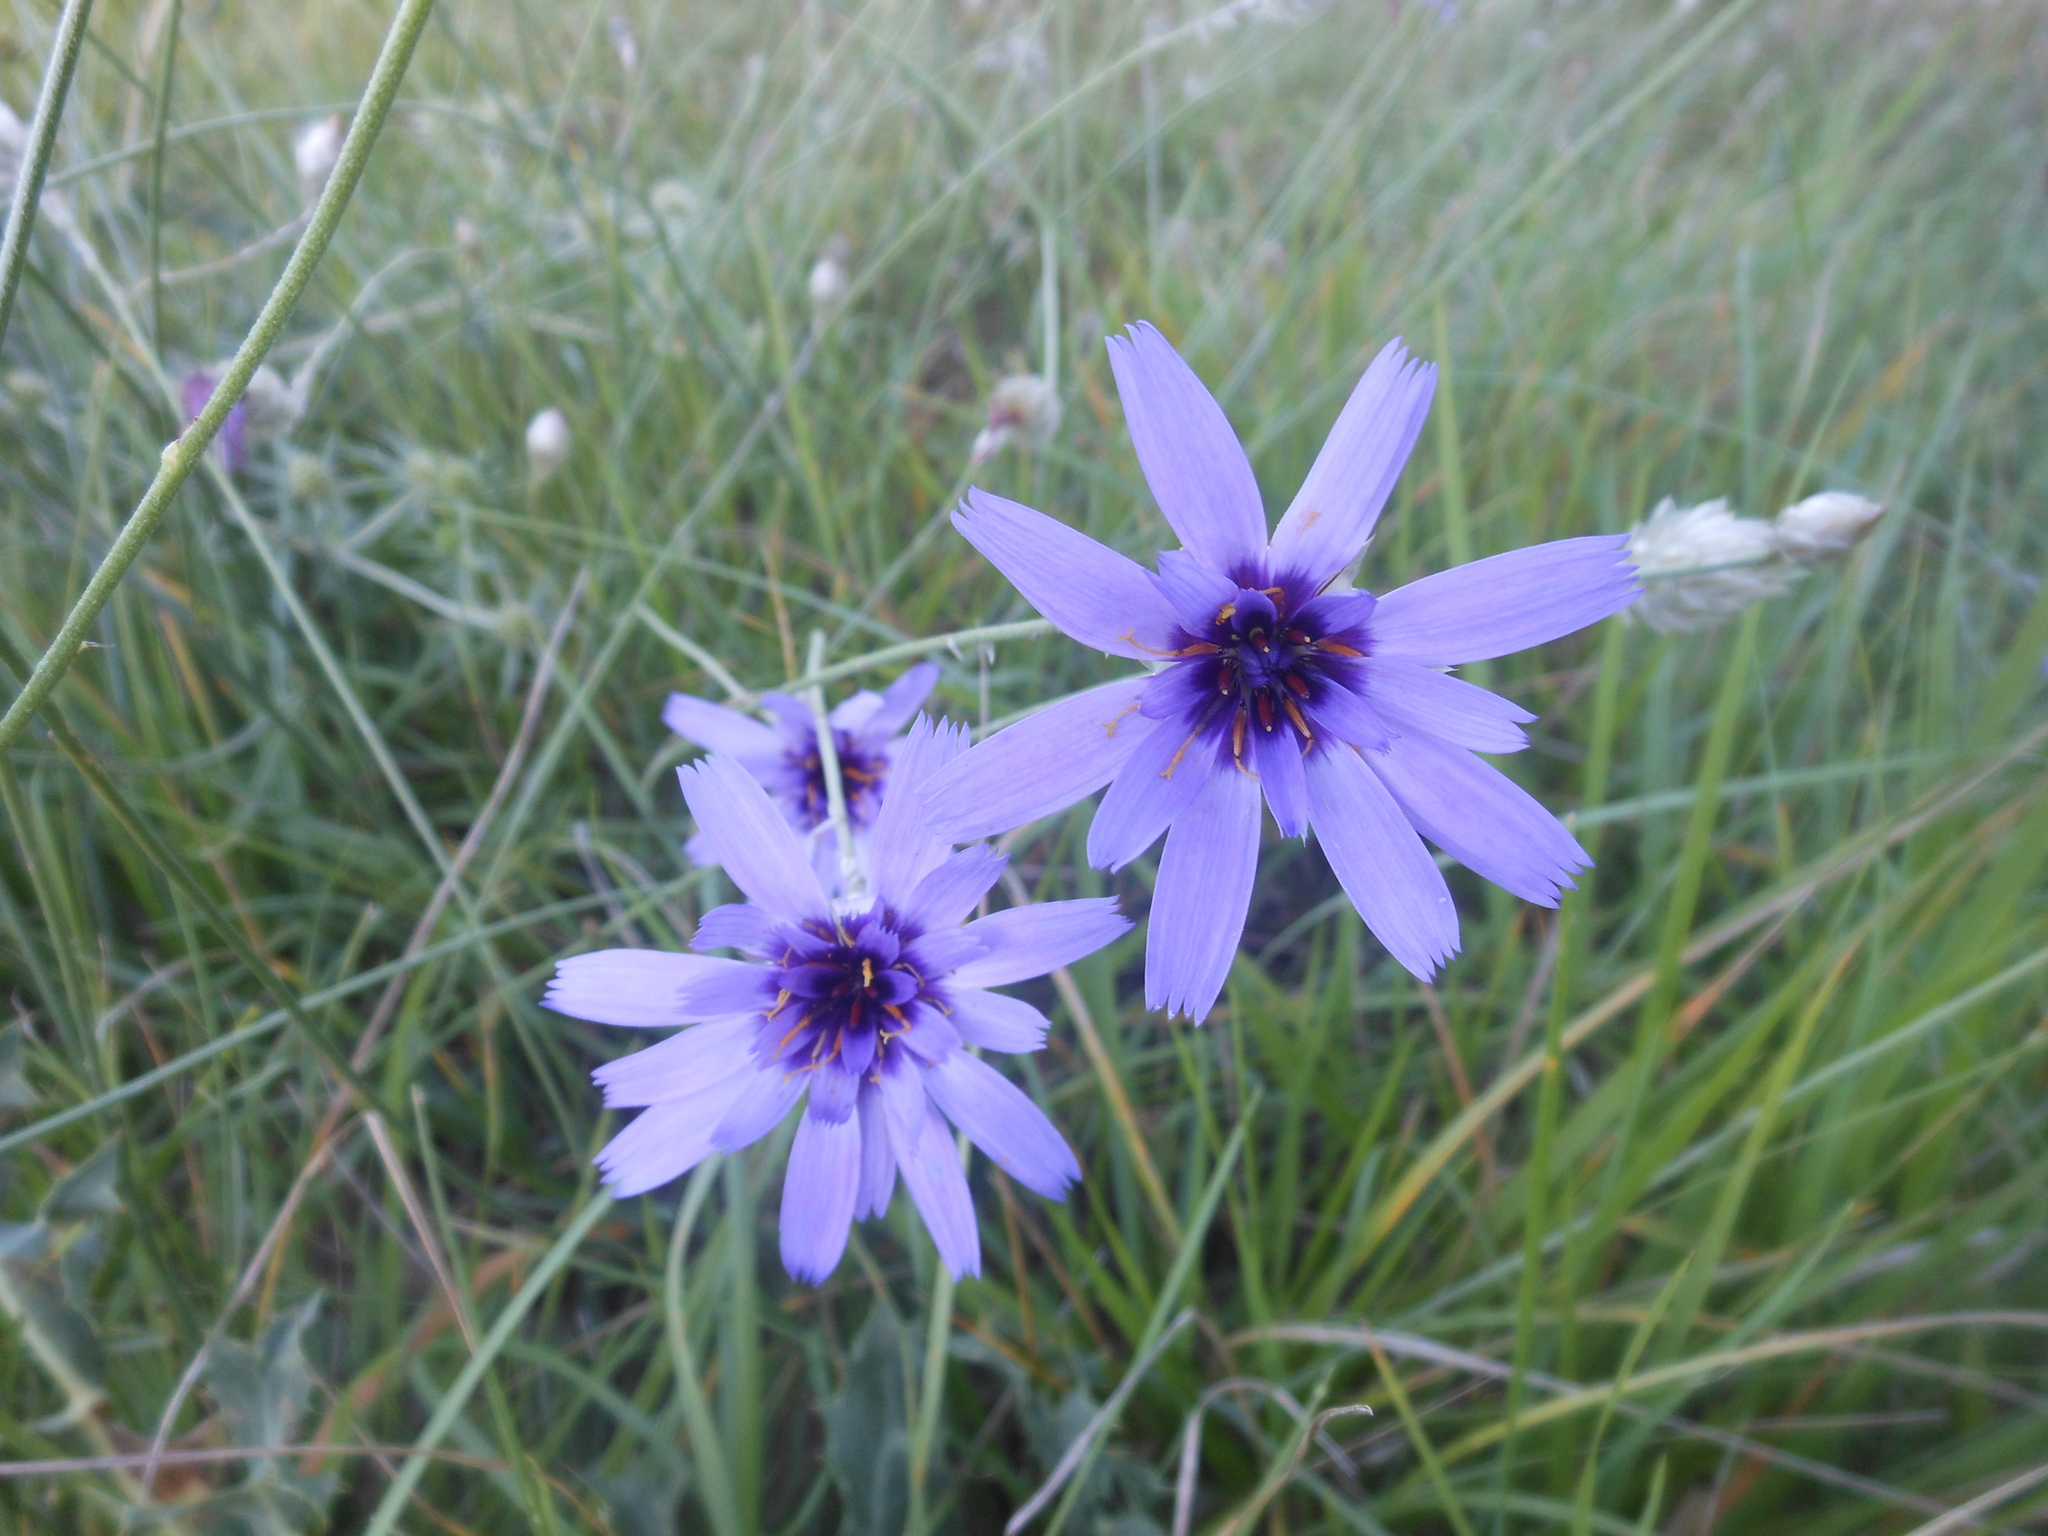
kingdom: Plantae
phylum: Tracheophyta
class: Magnoliopsida
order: Asterales
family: Asteraceae
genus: Catananche
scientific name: Catananche caerulea
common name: Blue cupidone
